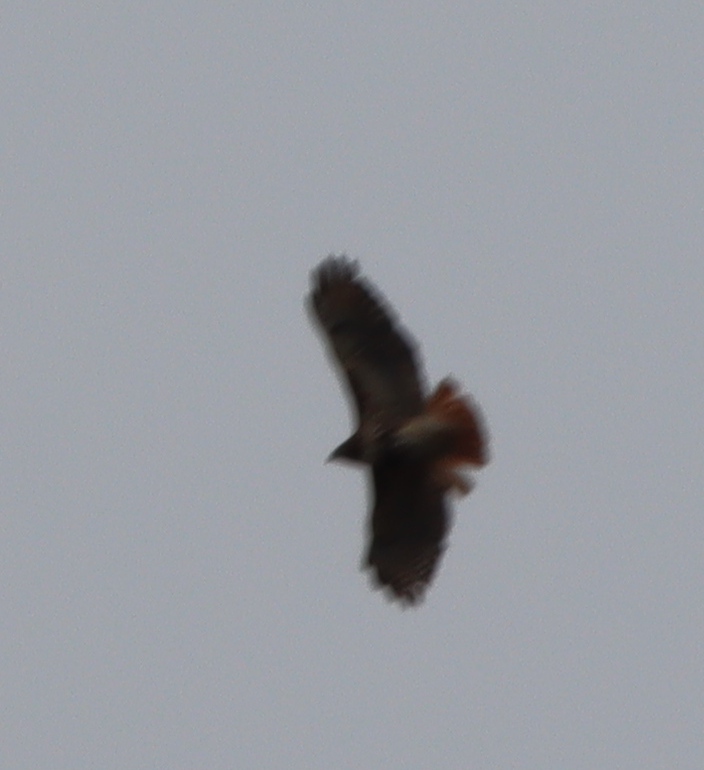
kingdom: Animalia
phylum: Chordata
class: Aves
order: Accipitriformes
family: Accipitridae
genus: Buteo
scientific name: Buteo jamaicensis
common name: Red-tailed hawk
